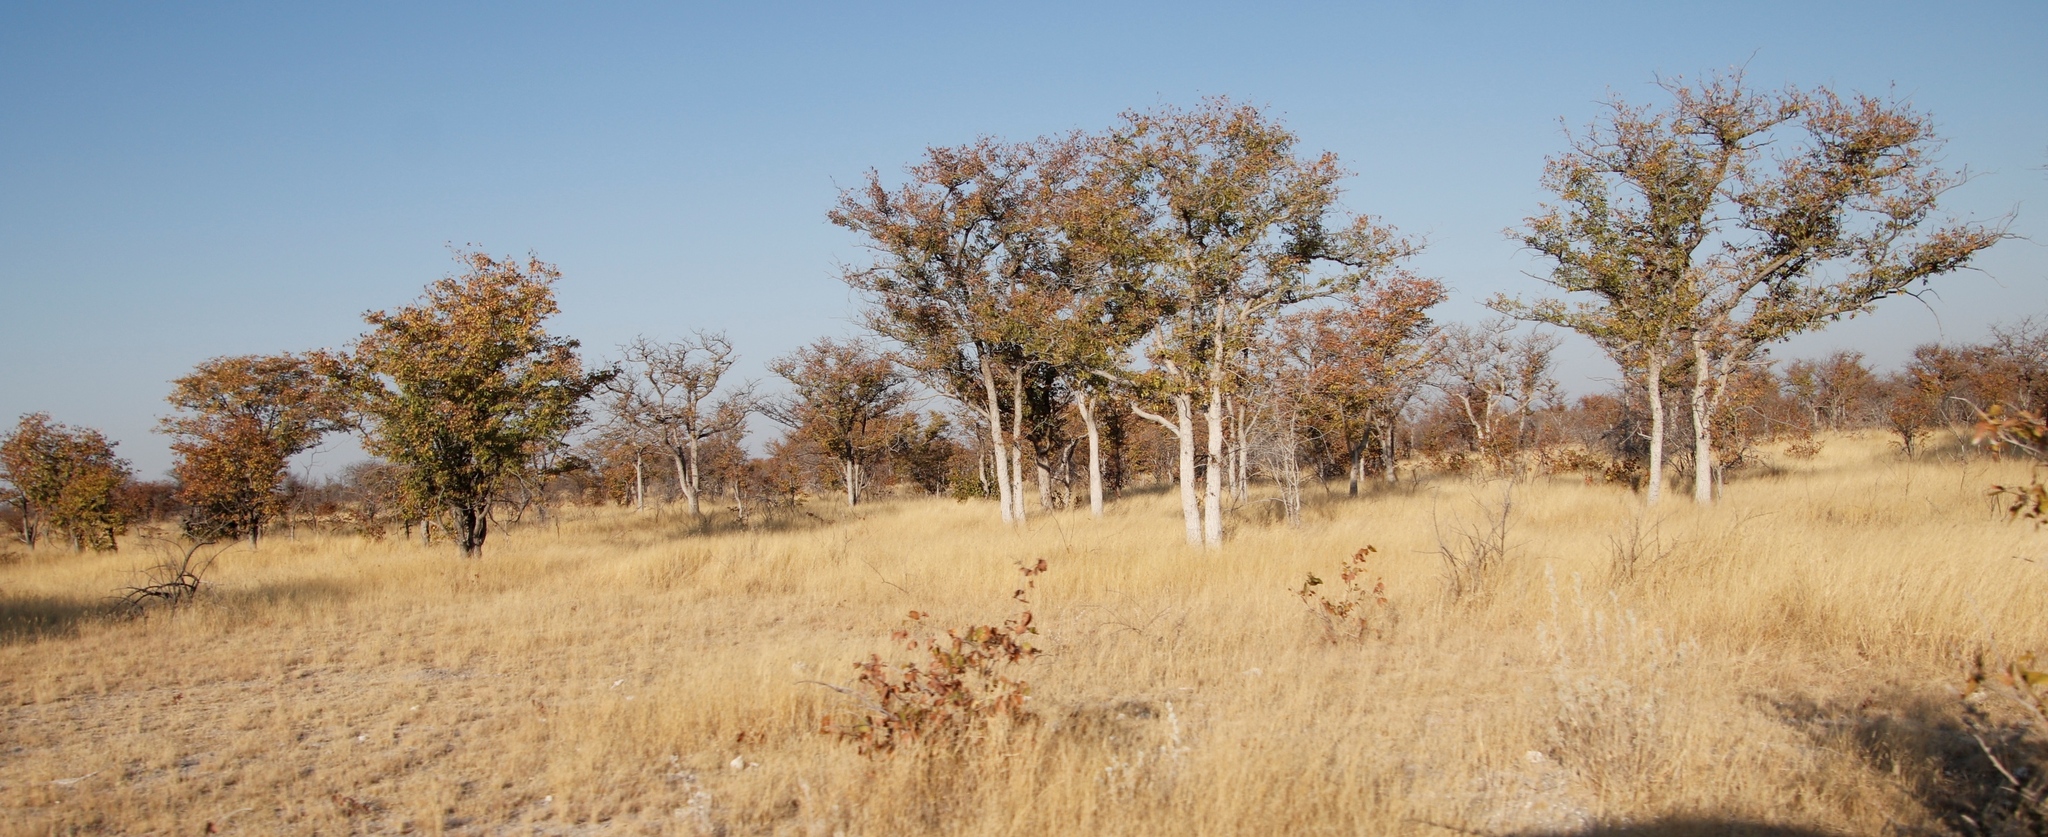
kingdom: Plantae
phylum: Tracheophyta
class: Magnoliopsida
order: Fabales
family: Fabaceae
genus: Colophospermum
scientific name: Colophospermum mopane
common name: Mopane
